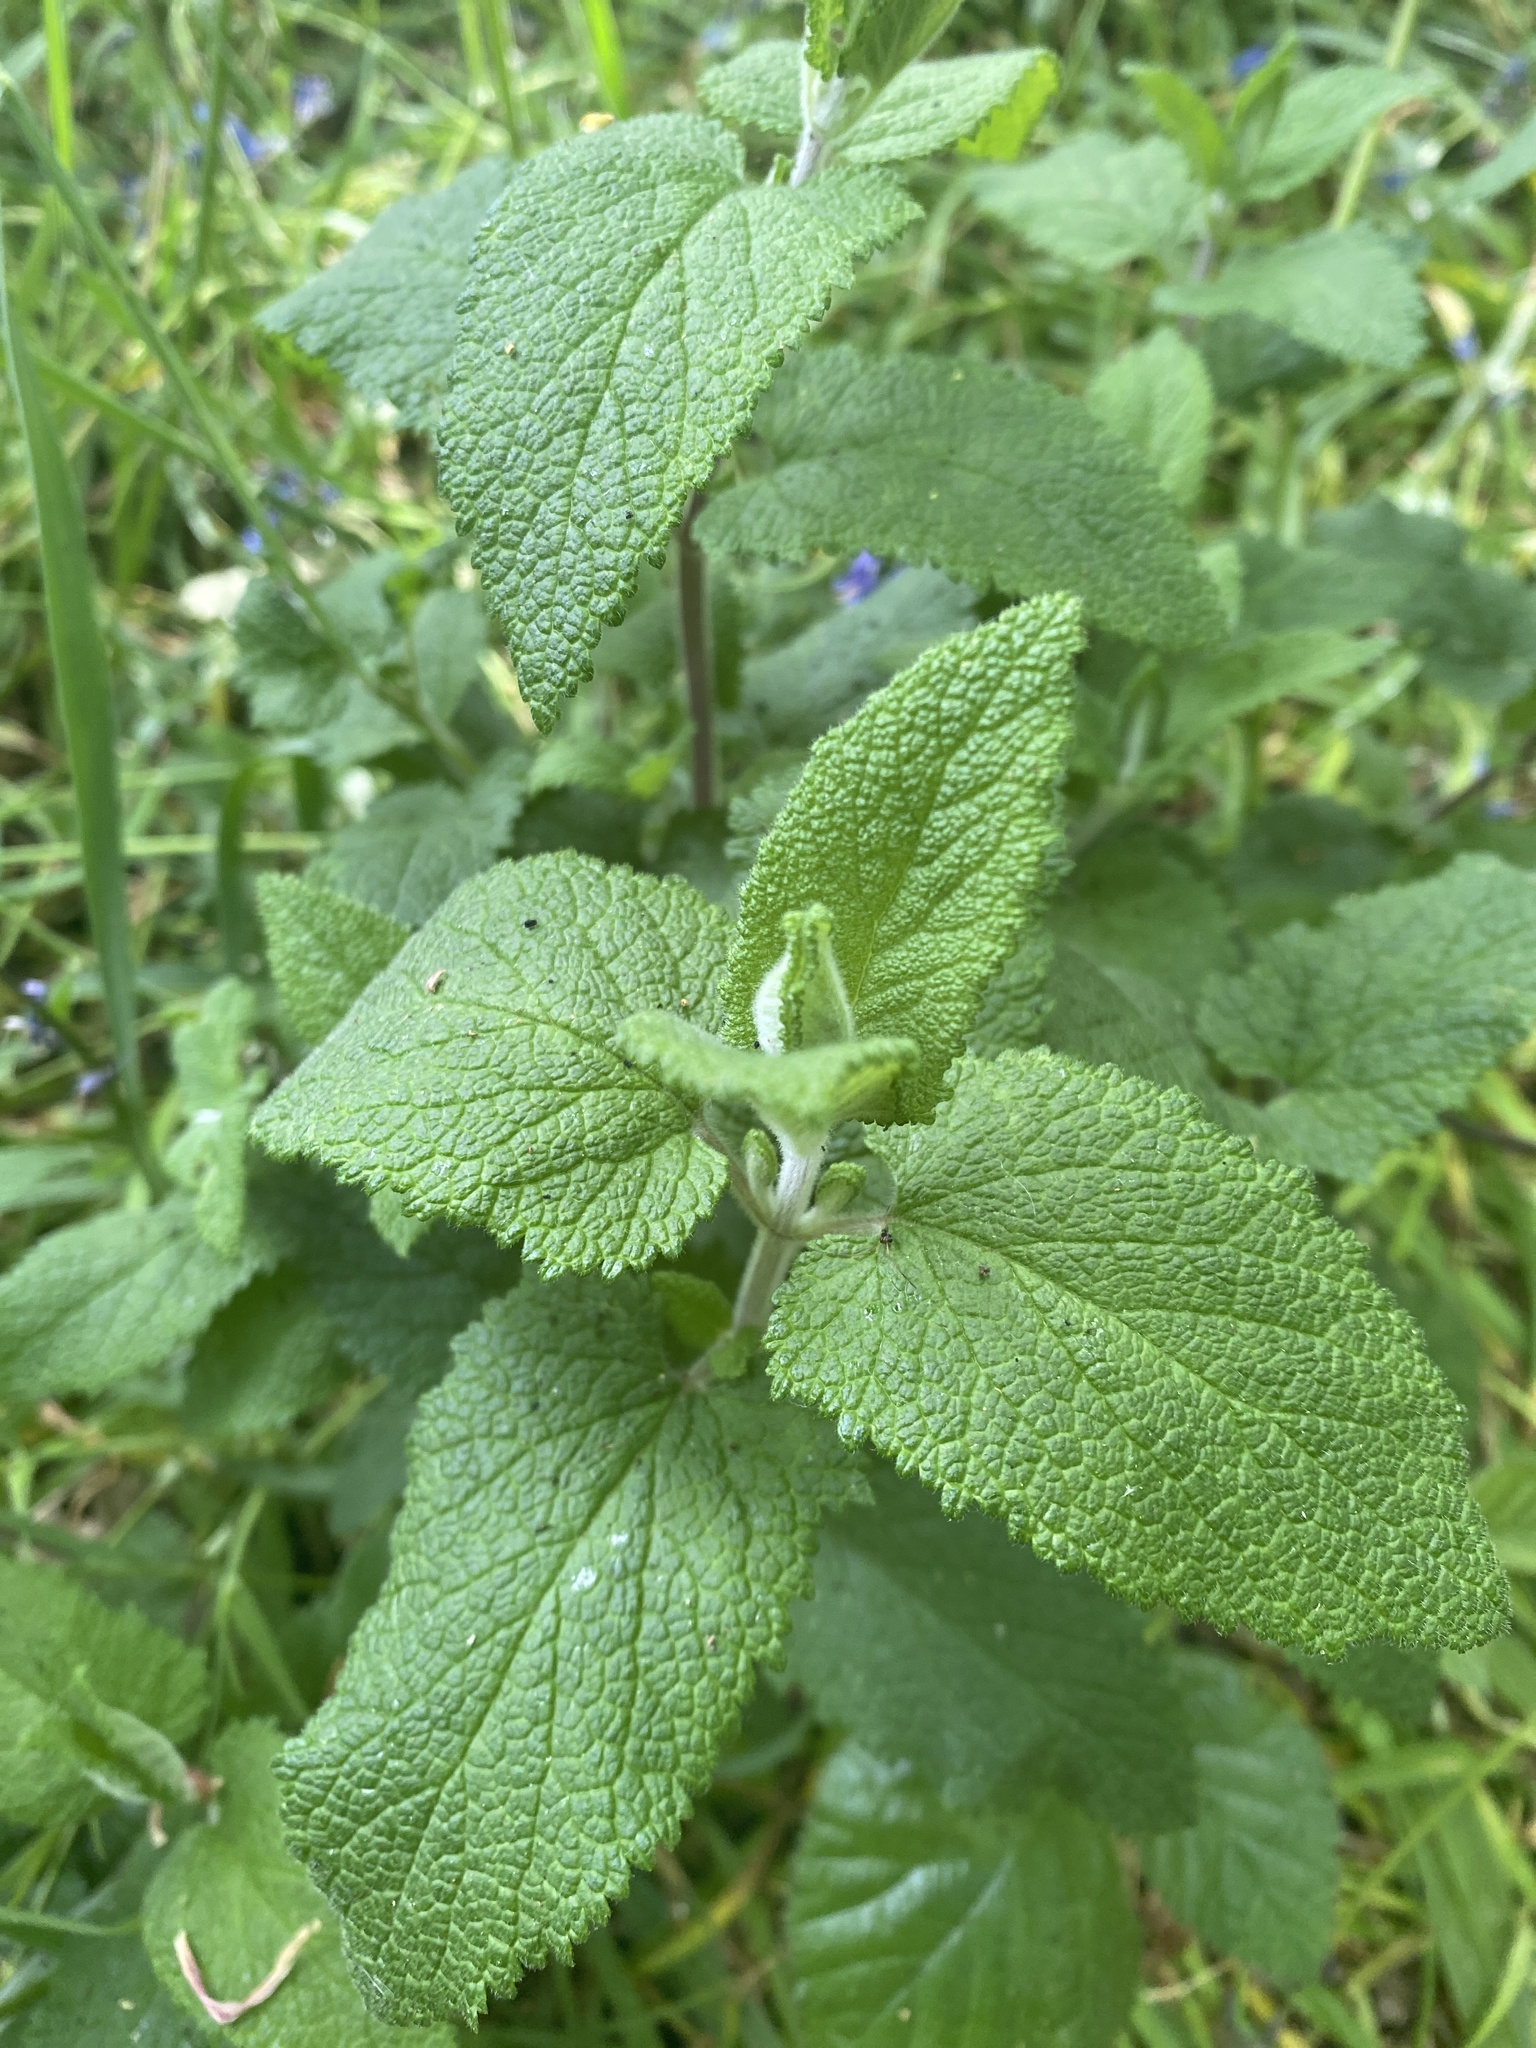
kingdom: Plantae
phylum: Tracheophyta
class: Magnoliopsida
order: Lamiales
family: Lamiaceae
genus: Teucrium
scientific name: Teucrium scorodonia
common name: Woodland germander
